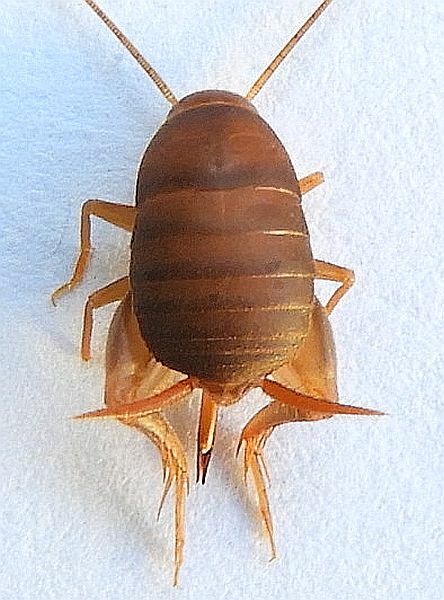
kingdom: Animalia
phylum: Arthropoda
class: Insecta
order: Orthoptera
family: Myrmecophilidae
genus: Myrmecophilus
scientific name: Myrmecophilus pergandei
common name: Eastern ant cricket
